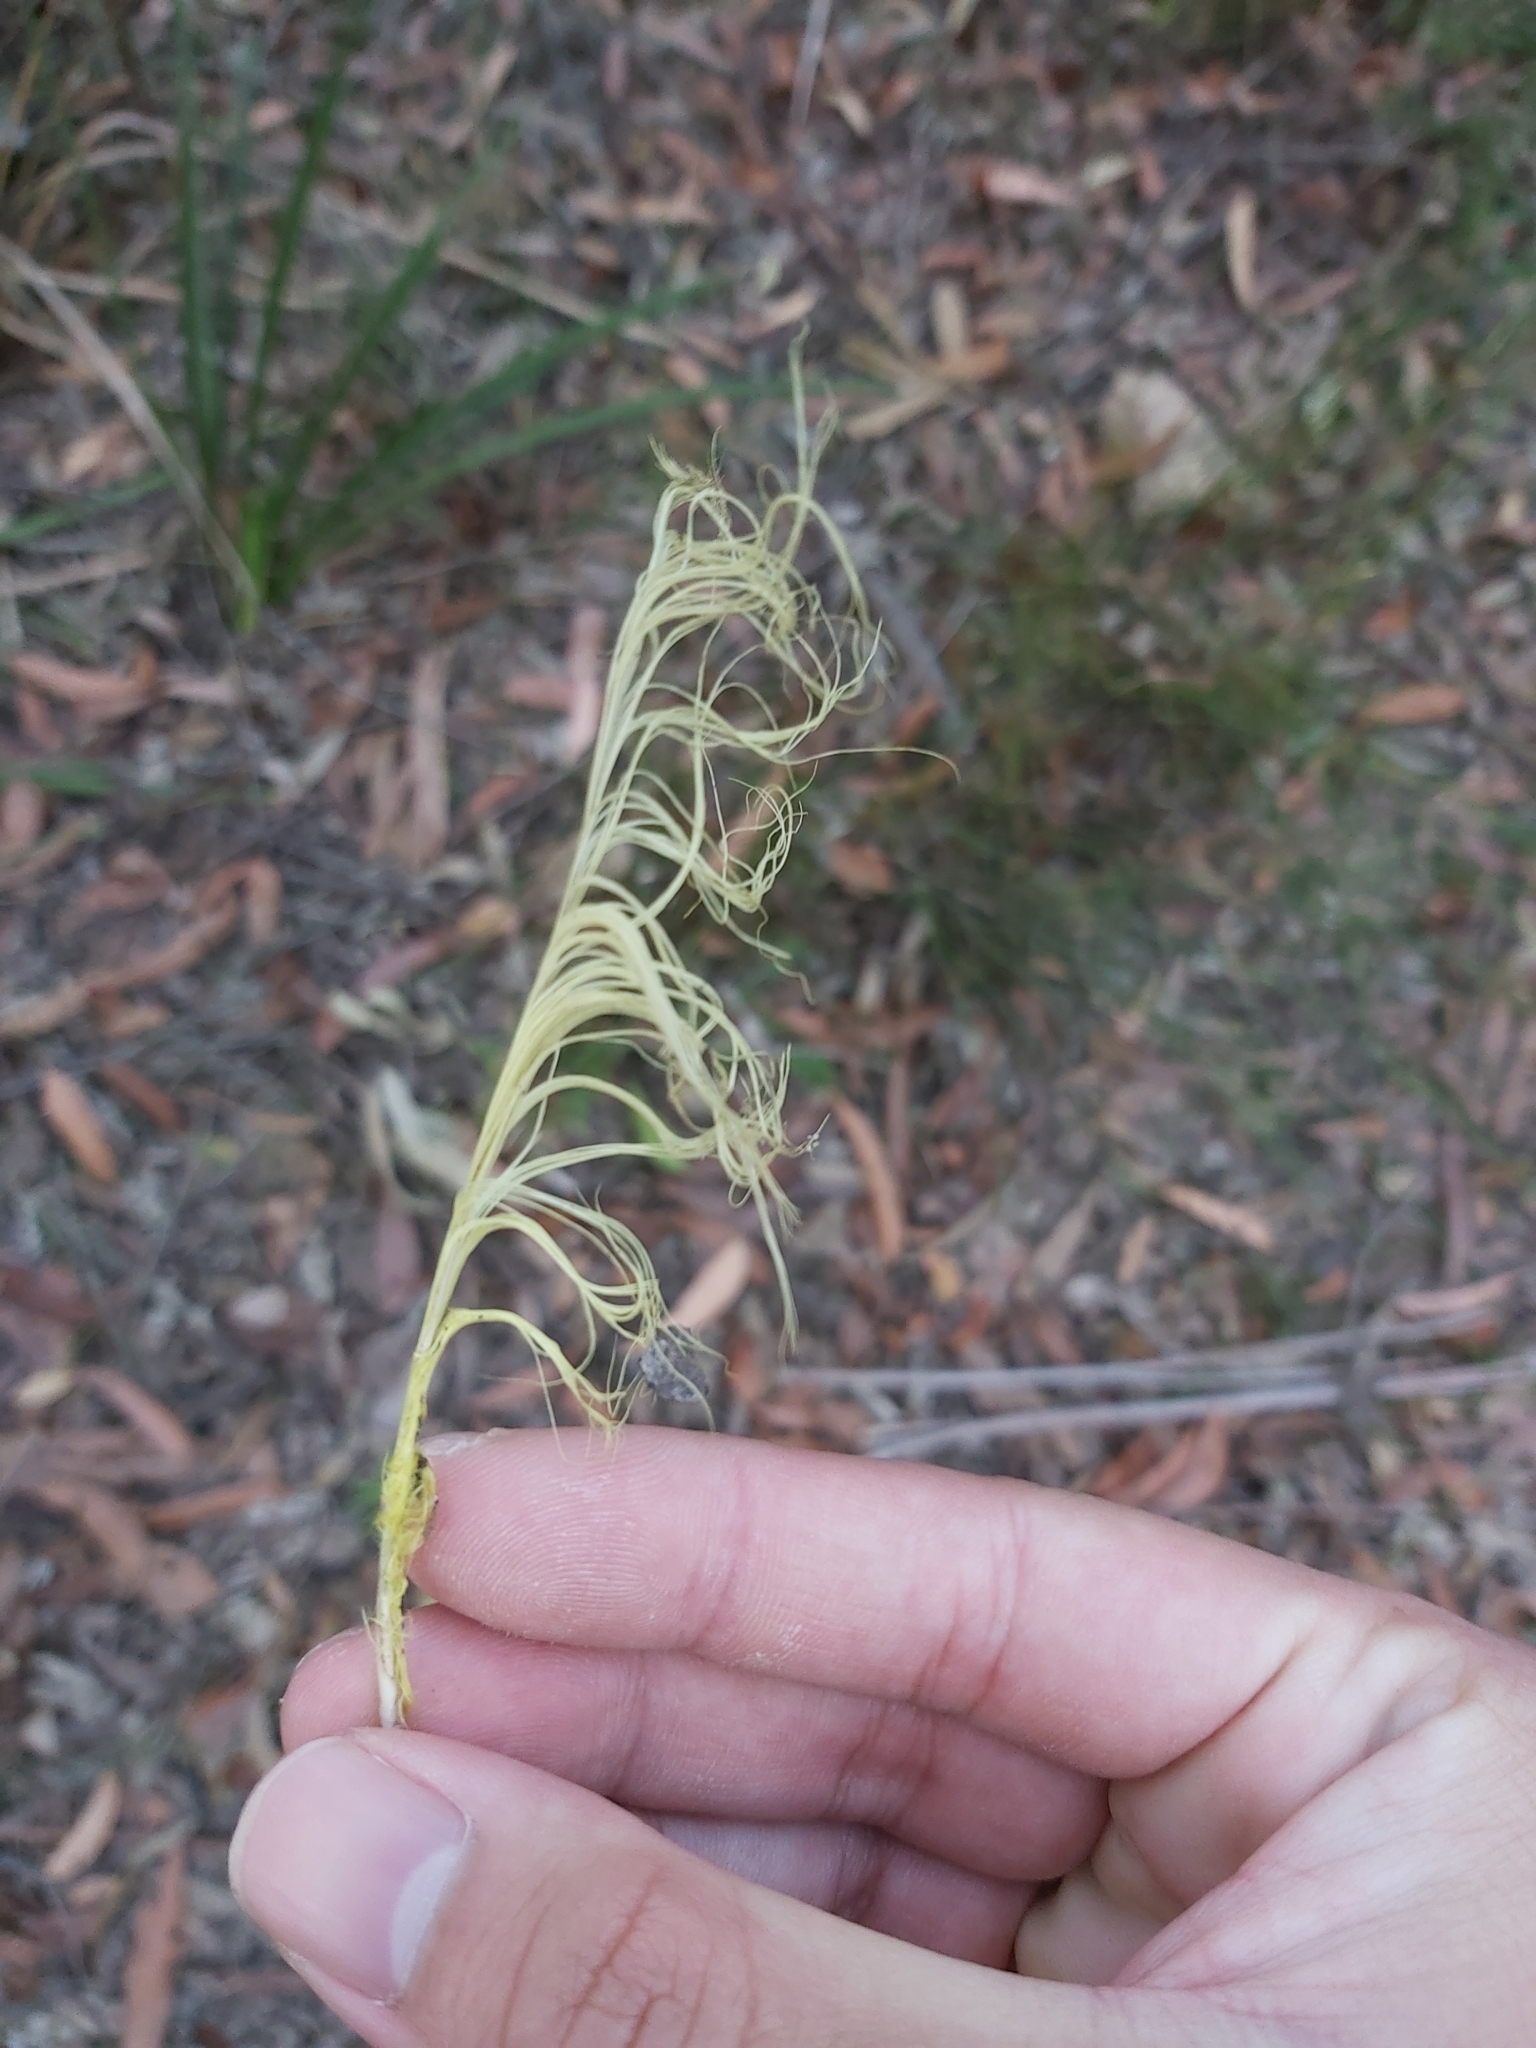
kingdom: Animalia
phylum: Chordata
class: Aves
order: Psittaciformes
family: Psittacidae
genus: Cacatua
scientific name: Cacatua galerita
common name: Sulphur-crested cockatoo
